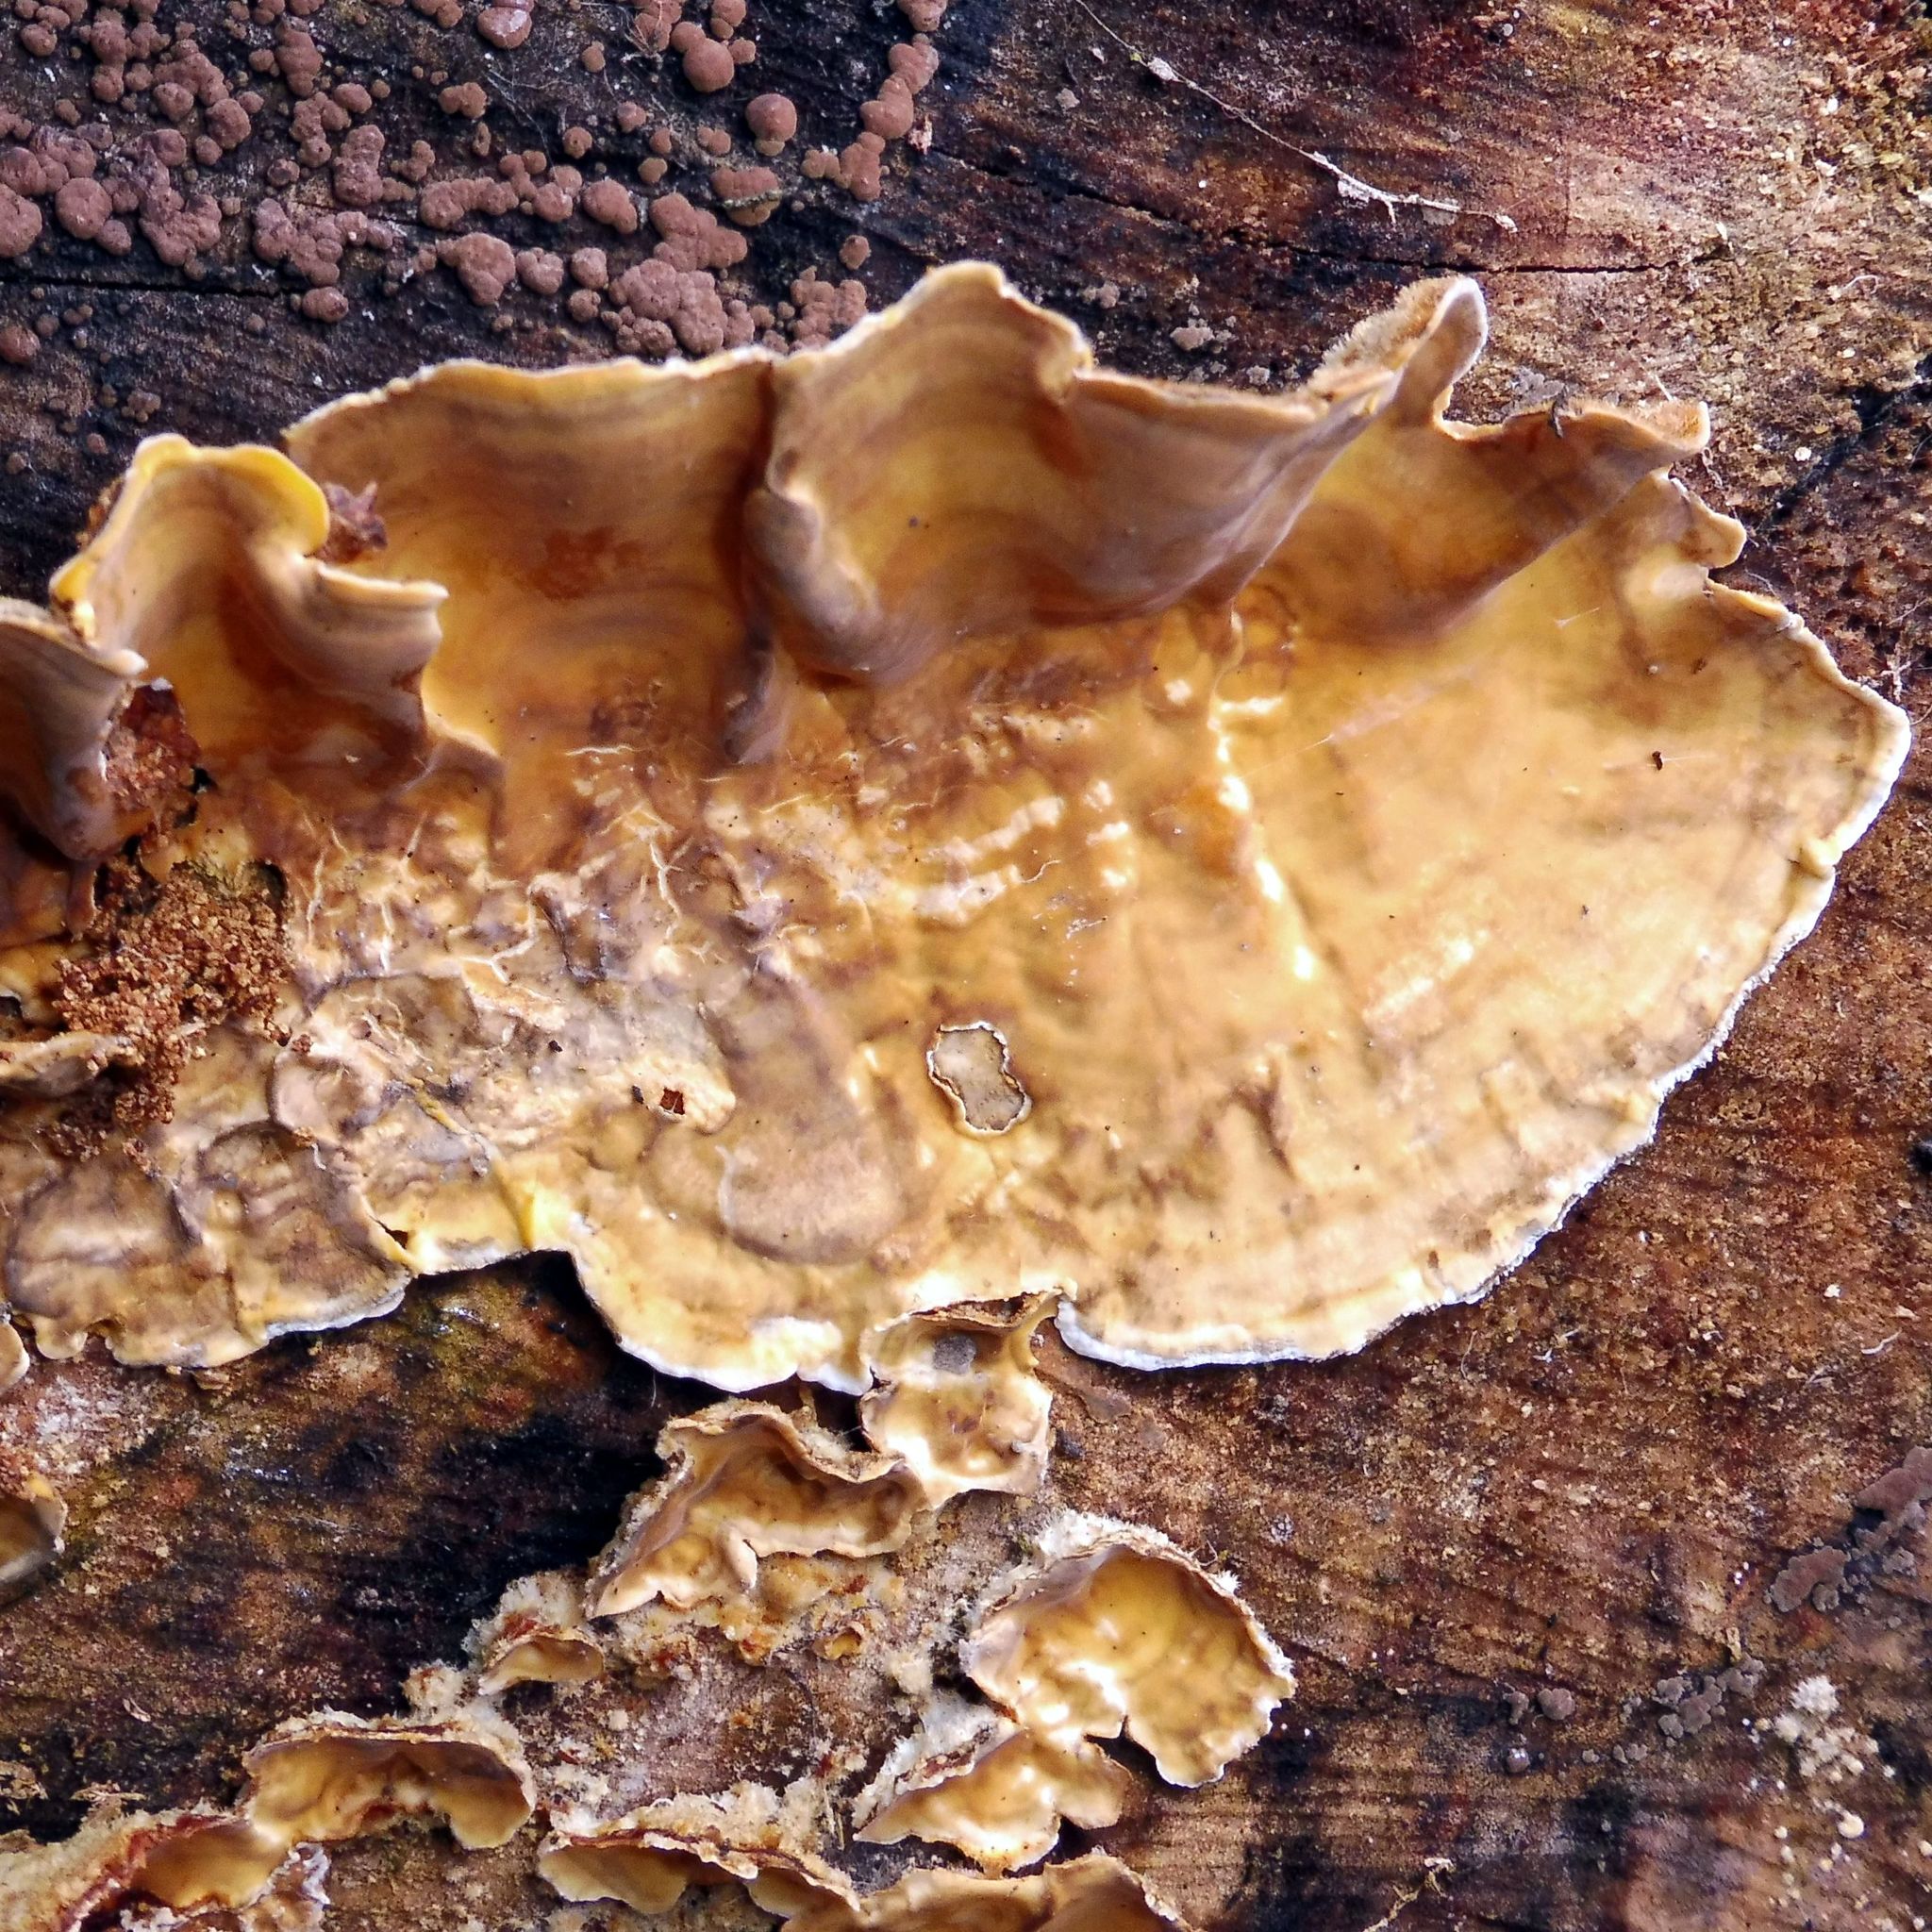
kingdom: Fungi
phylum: Basidiomycota
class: Agaricomycetes
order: Russulales
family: Stereaceae
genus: Stereum
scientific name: Stereum hirsutum
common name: Hairy curtain crust
